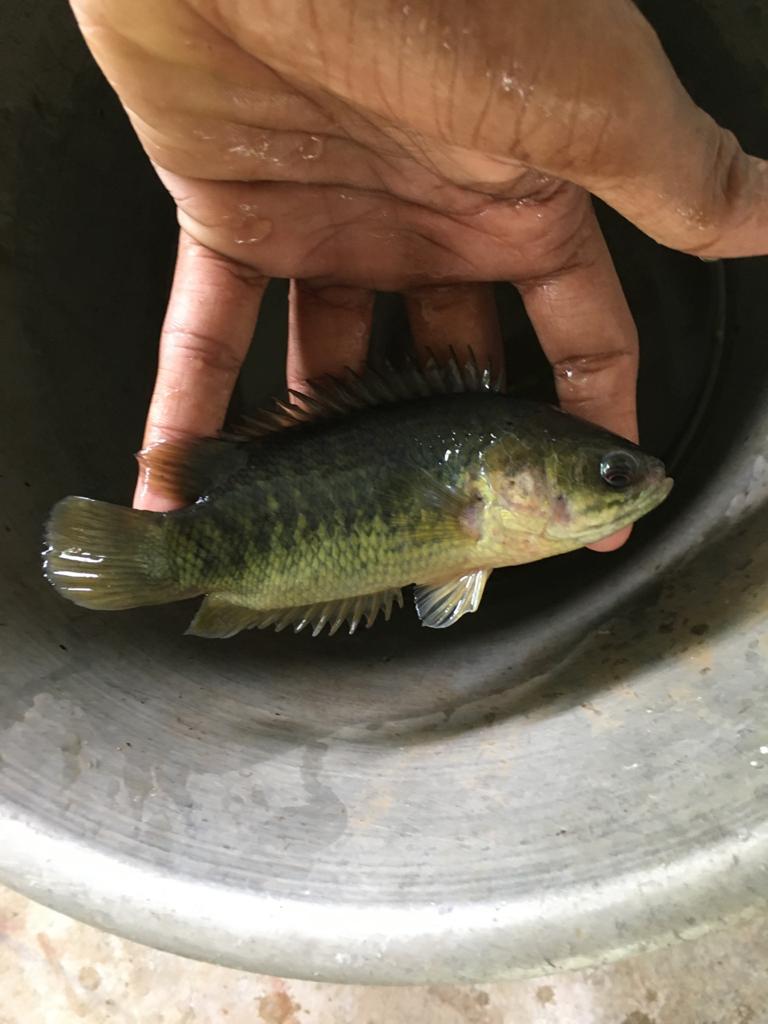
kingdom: Animalia
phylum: Chordata
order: Perciformes
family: Anabantidae
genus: Anabas
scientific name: Anabas testudineus
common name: Climbing perch
